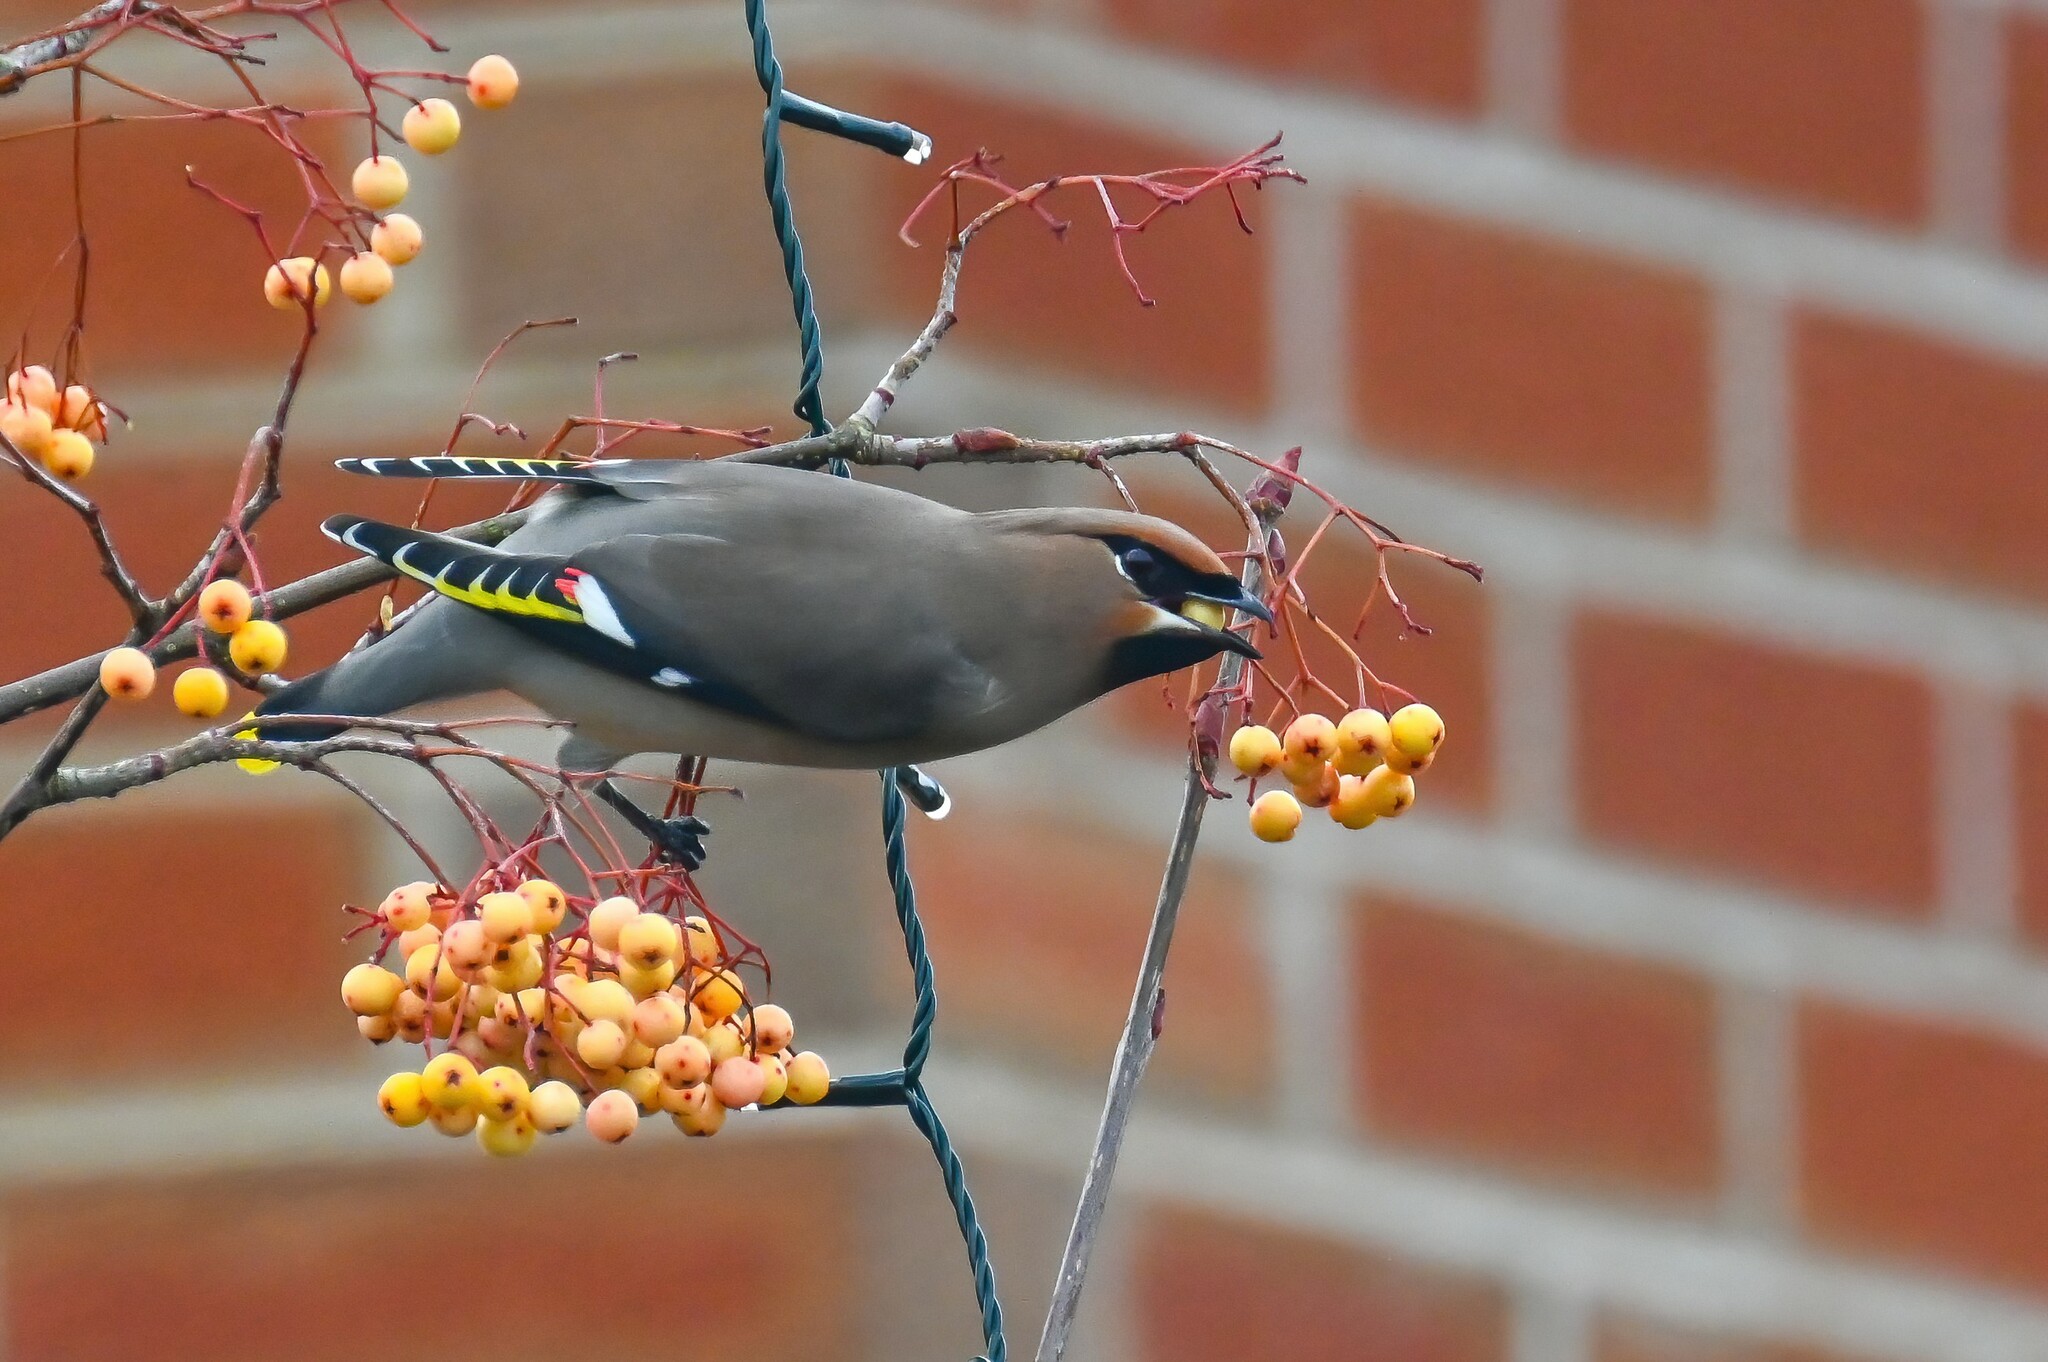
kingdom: Animalia
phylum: Chordata
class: Aves
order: Passeriformes
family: Bombycillidae
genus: Bombycilla
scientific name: Bombycilla garrulus
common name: Bohemian waxwing
